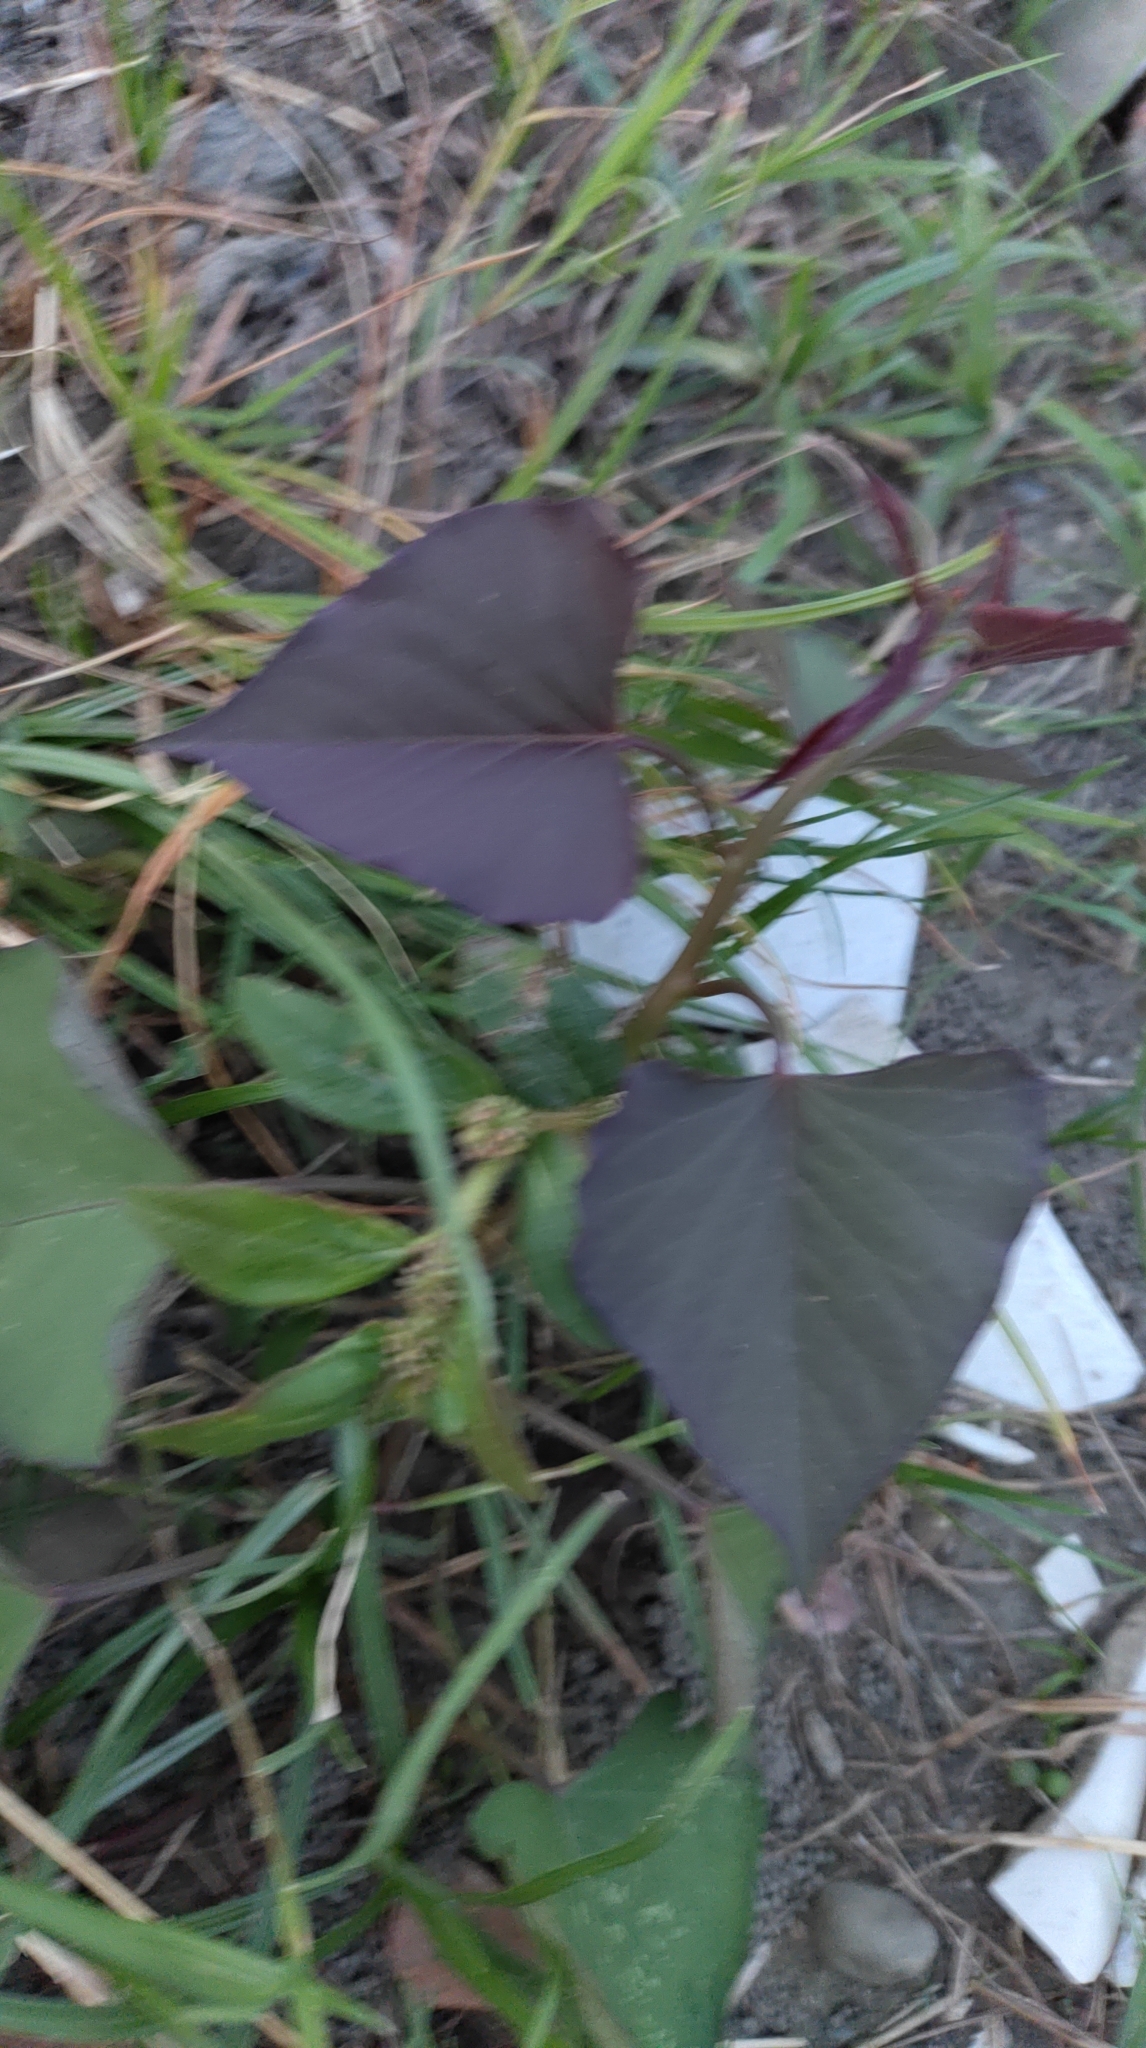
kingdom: Plantae
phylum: Tracheophyta
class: Magnoliopsida
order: Solanales
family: Convolvulaceae
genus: Ipomoea
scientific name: Ipomoea batatas
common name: Sweet-potato
